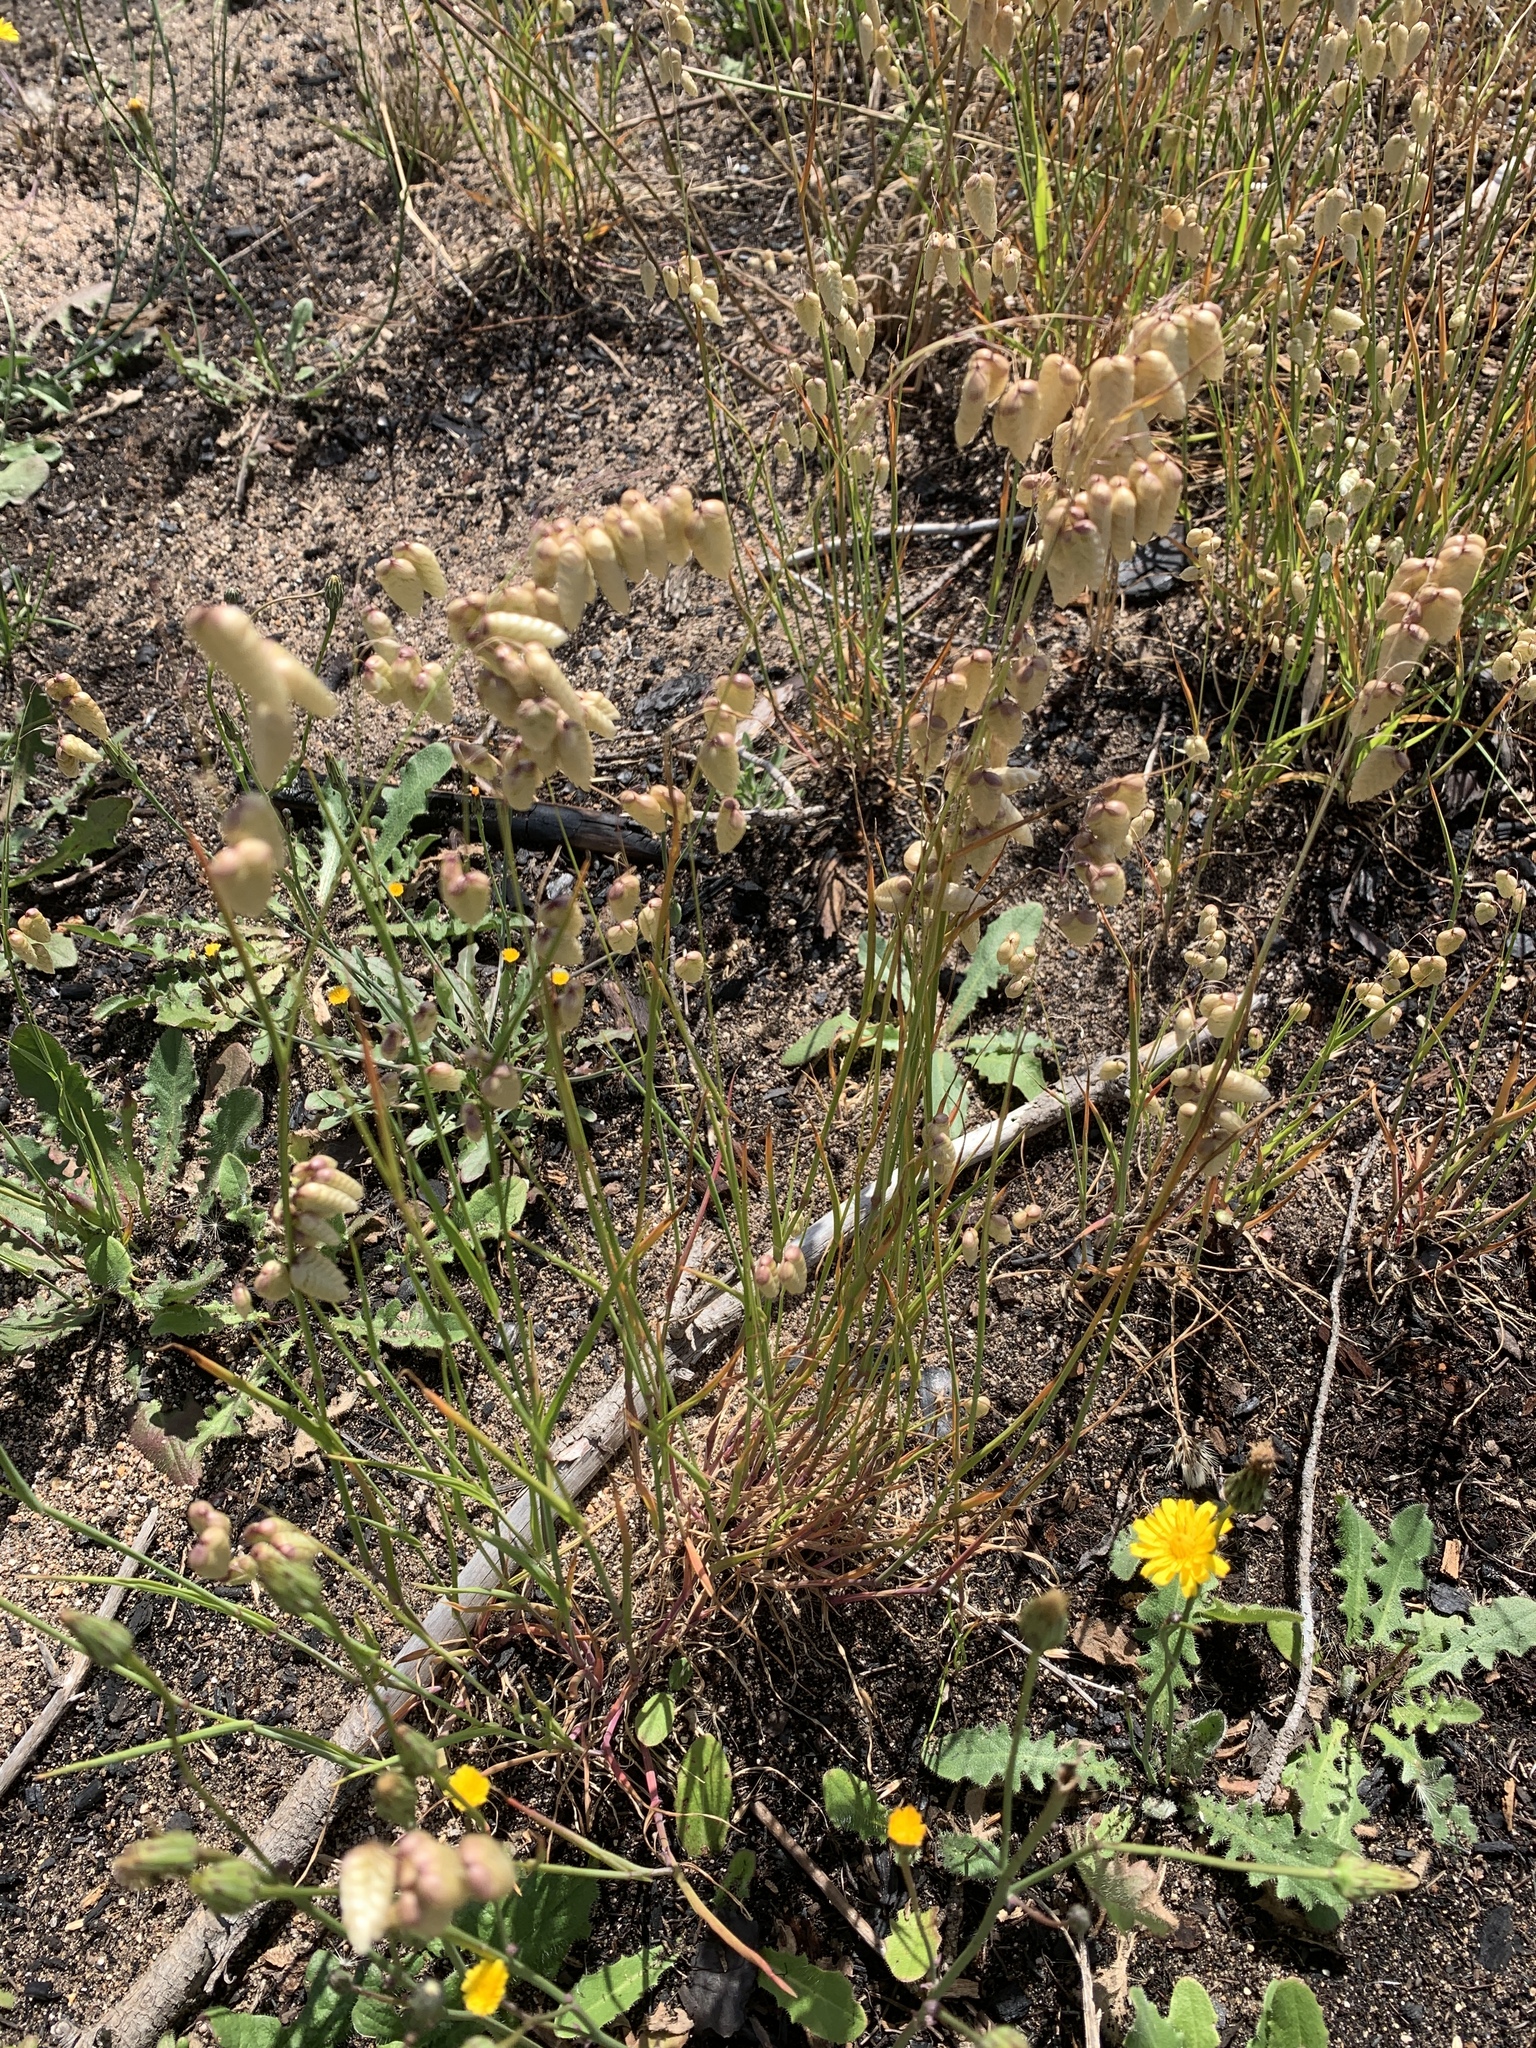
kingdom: Plantae
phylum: Tracheophyta
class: Liliopsida
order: Poales
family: Poaceae
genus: Briza
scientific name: Briza maxima
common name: Big quakinggrass
